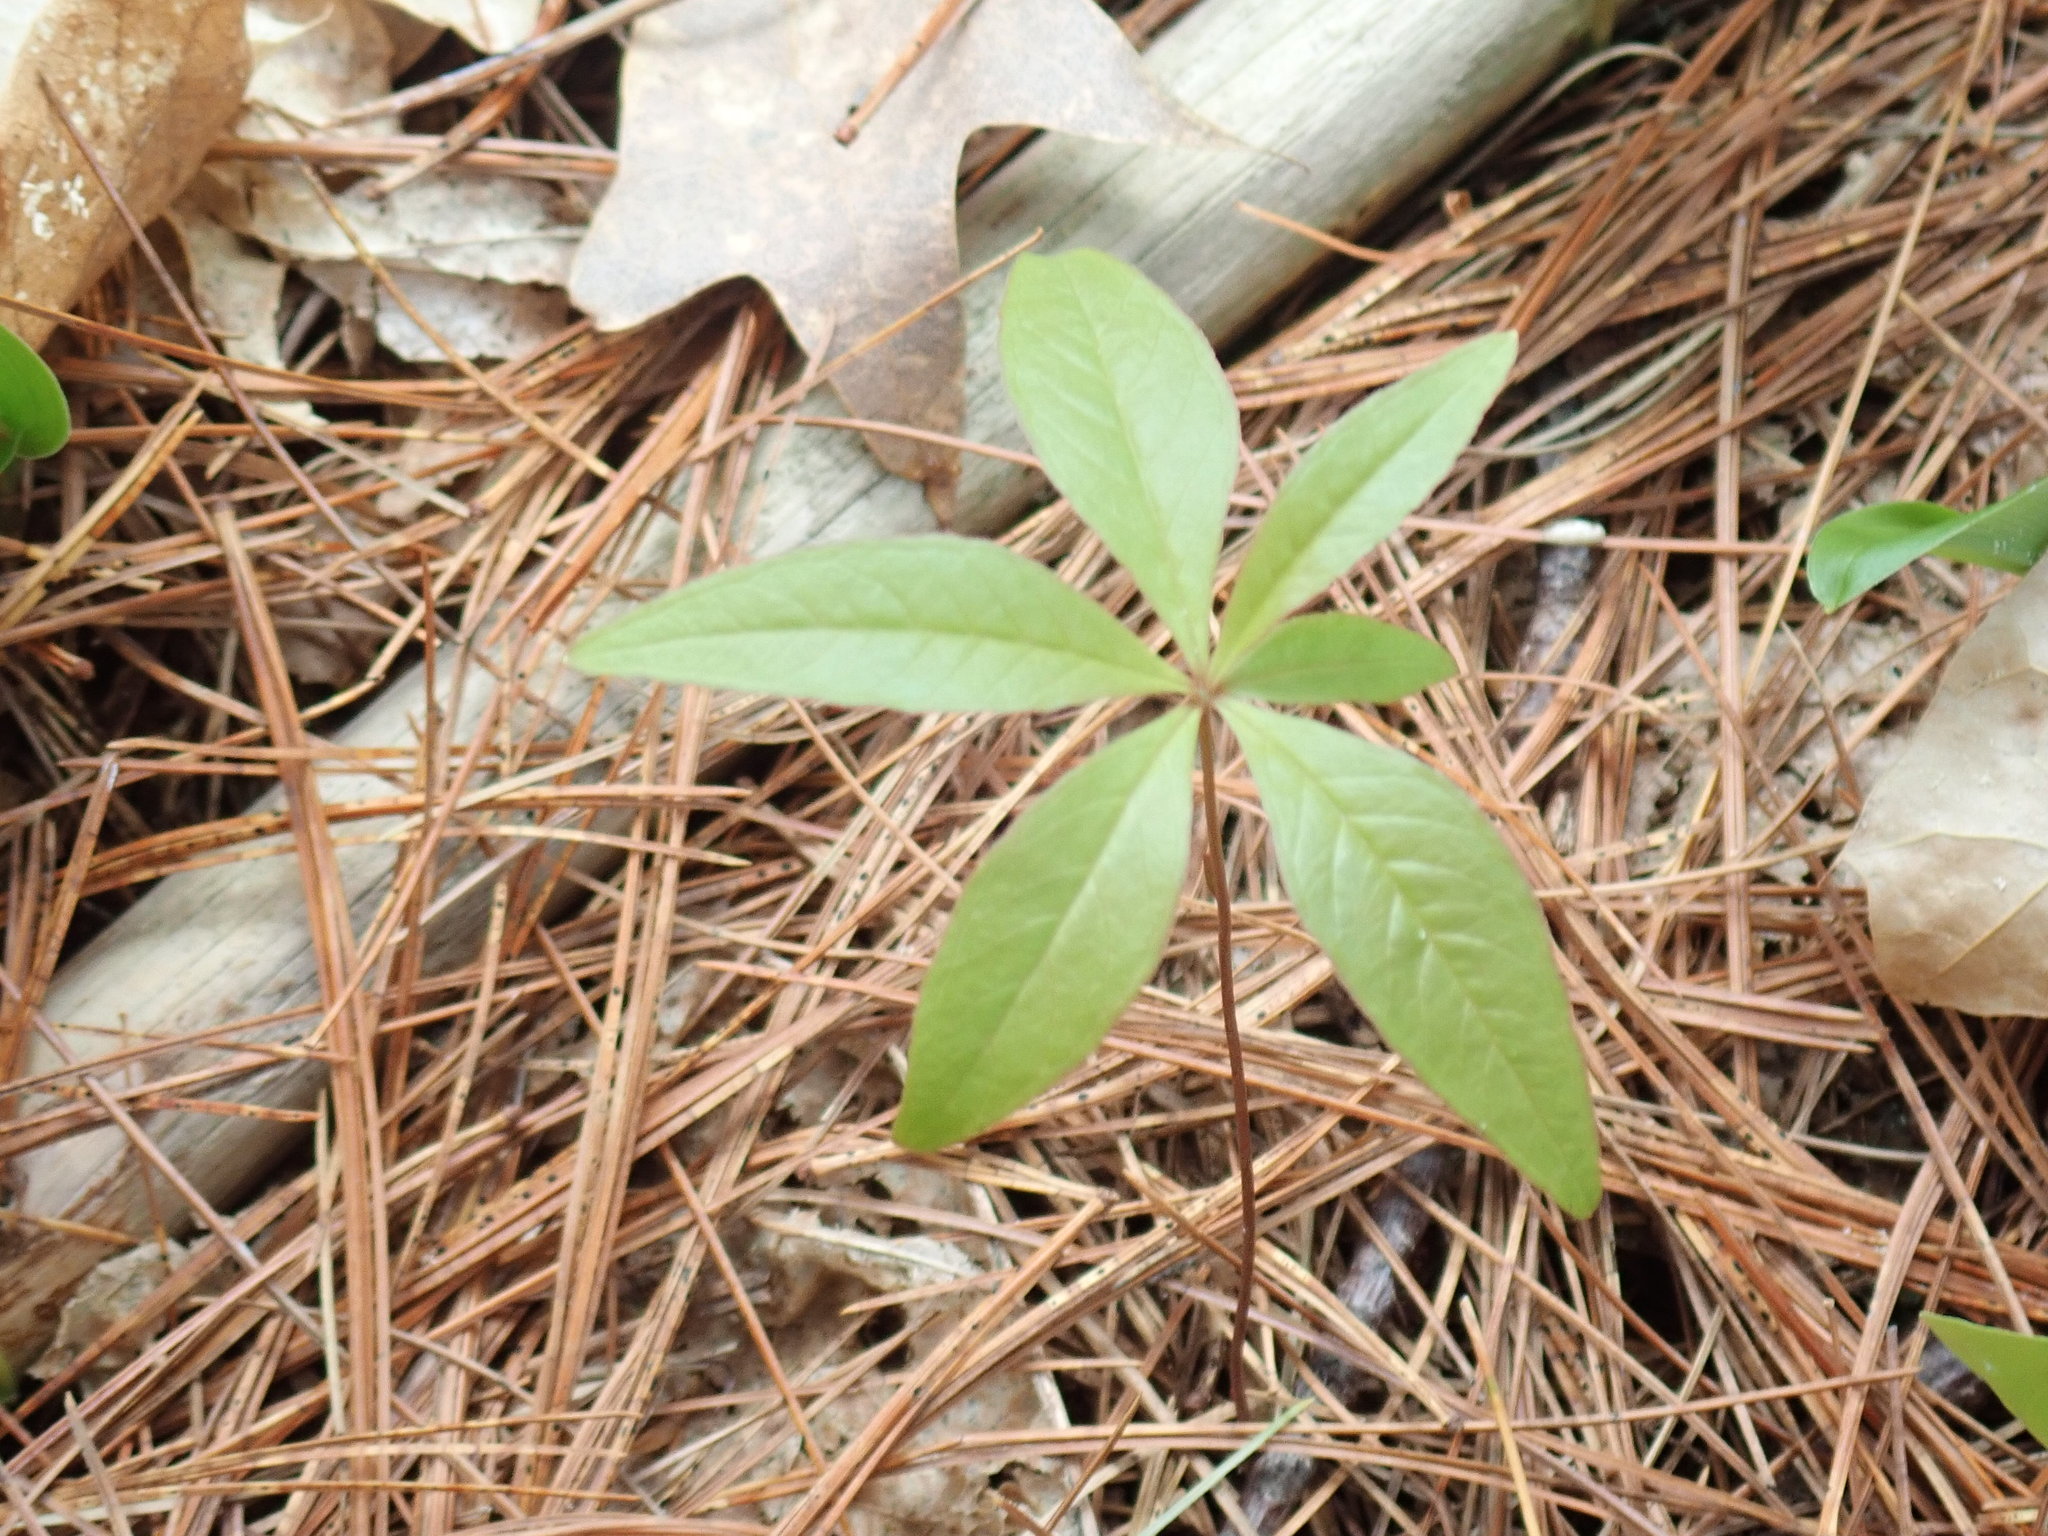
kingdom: Plantae
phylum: Tracheophyta
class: Magnoliopsida
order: Ericales
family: Primulaceae
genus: Lysimachia
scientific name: Lysimachia borealis
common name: American starflower
